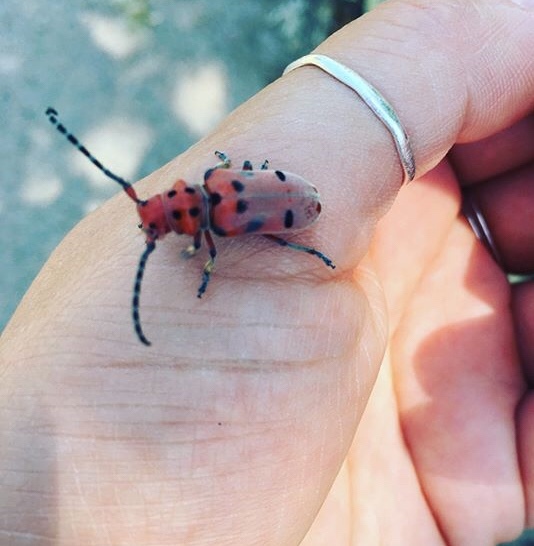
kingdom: Animalia
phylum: Arthropoda
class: Insecta
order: Coleoptera
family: Cerambycidae
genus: Tetraopes
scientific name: Tetraopes femoratus
